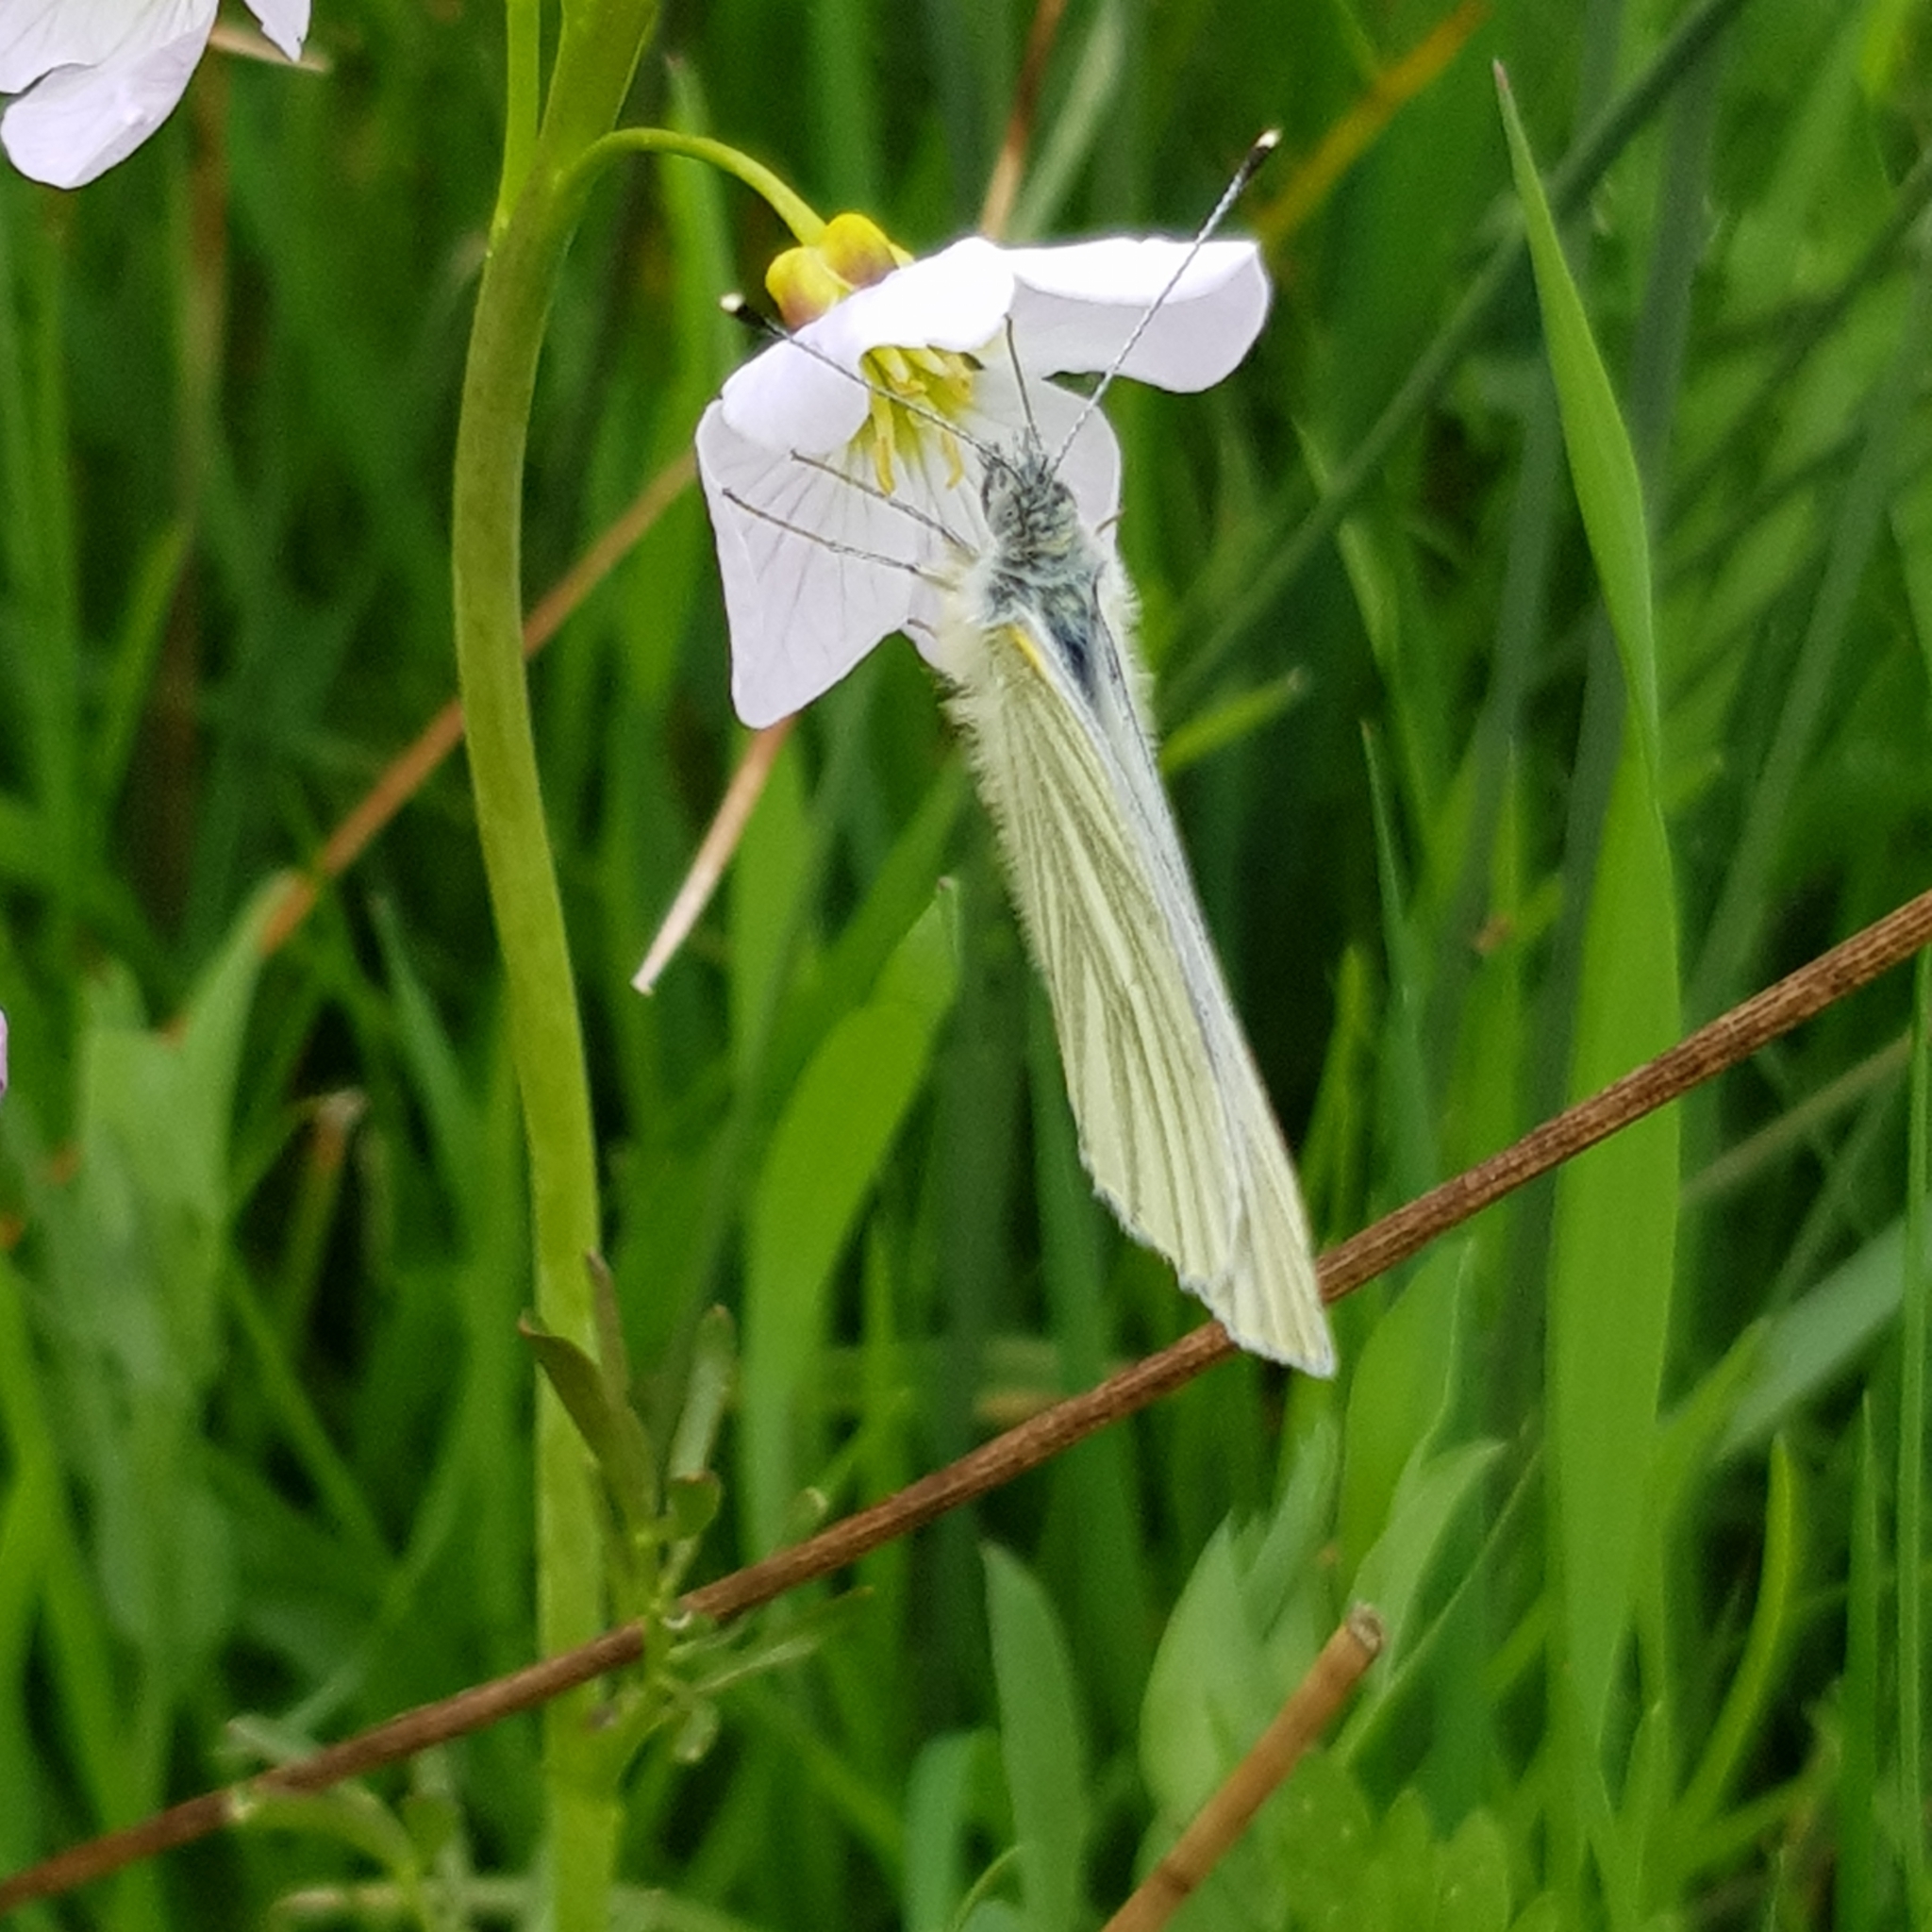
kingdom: Animalia
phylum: Arthropoda
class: Insecta
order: Lepidoptera
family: Pieridae
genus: Pieris
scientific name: Pieris napi
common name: Green-veined white
